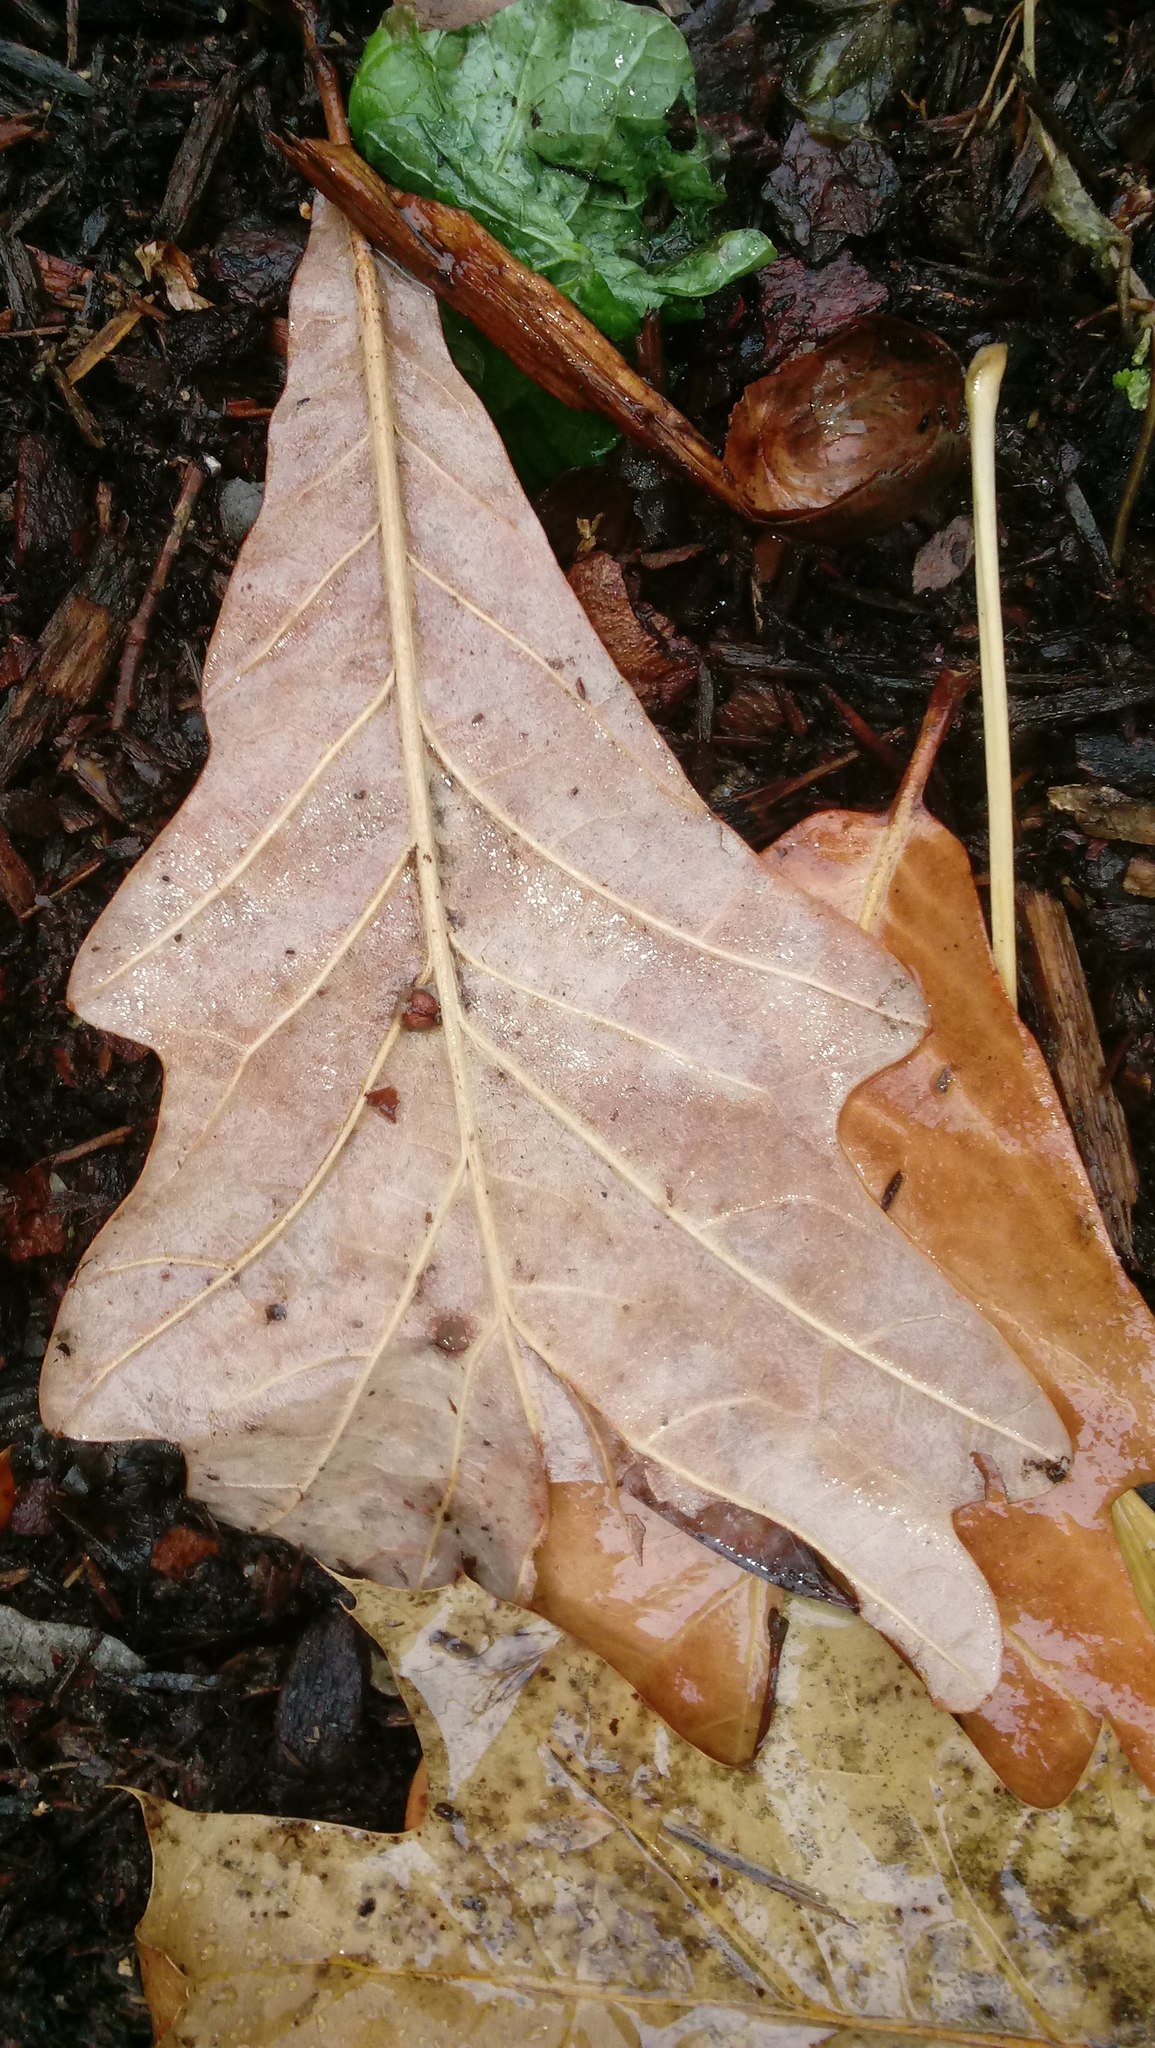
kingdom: Animalia
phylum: Arthropoda
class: Insecta
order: Hymenoptera
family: Cynipidae
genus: Andricus
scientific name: Andricus Druon ignotum
